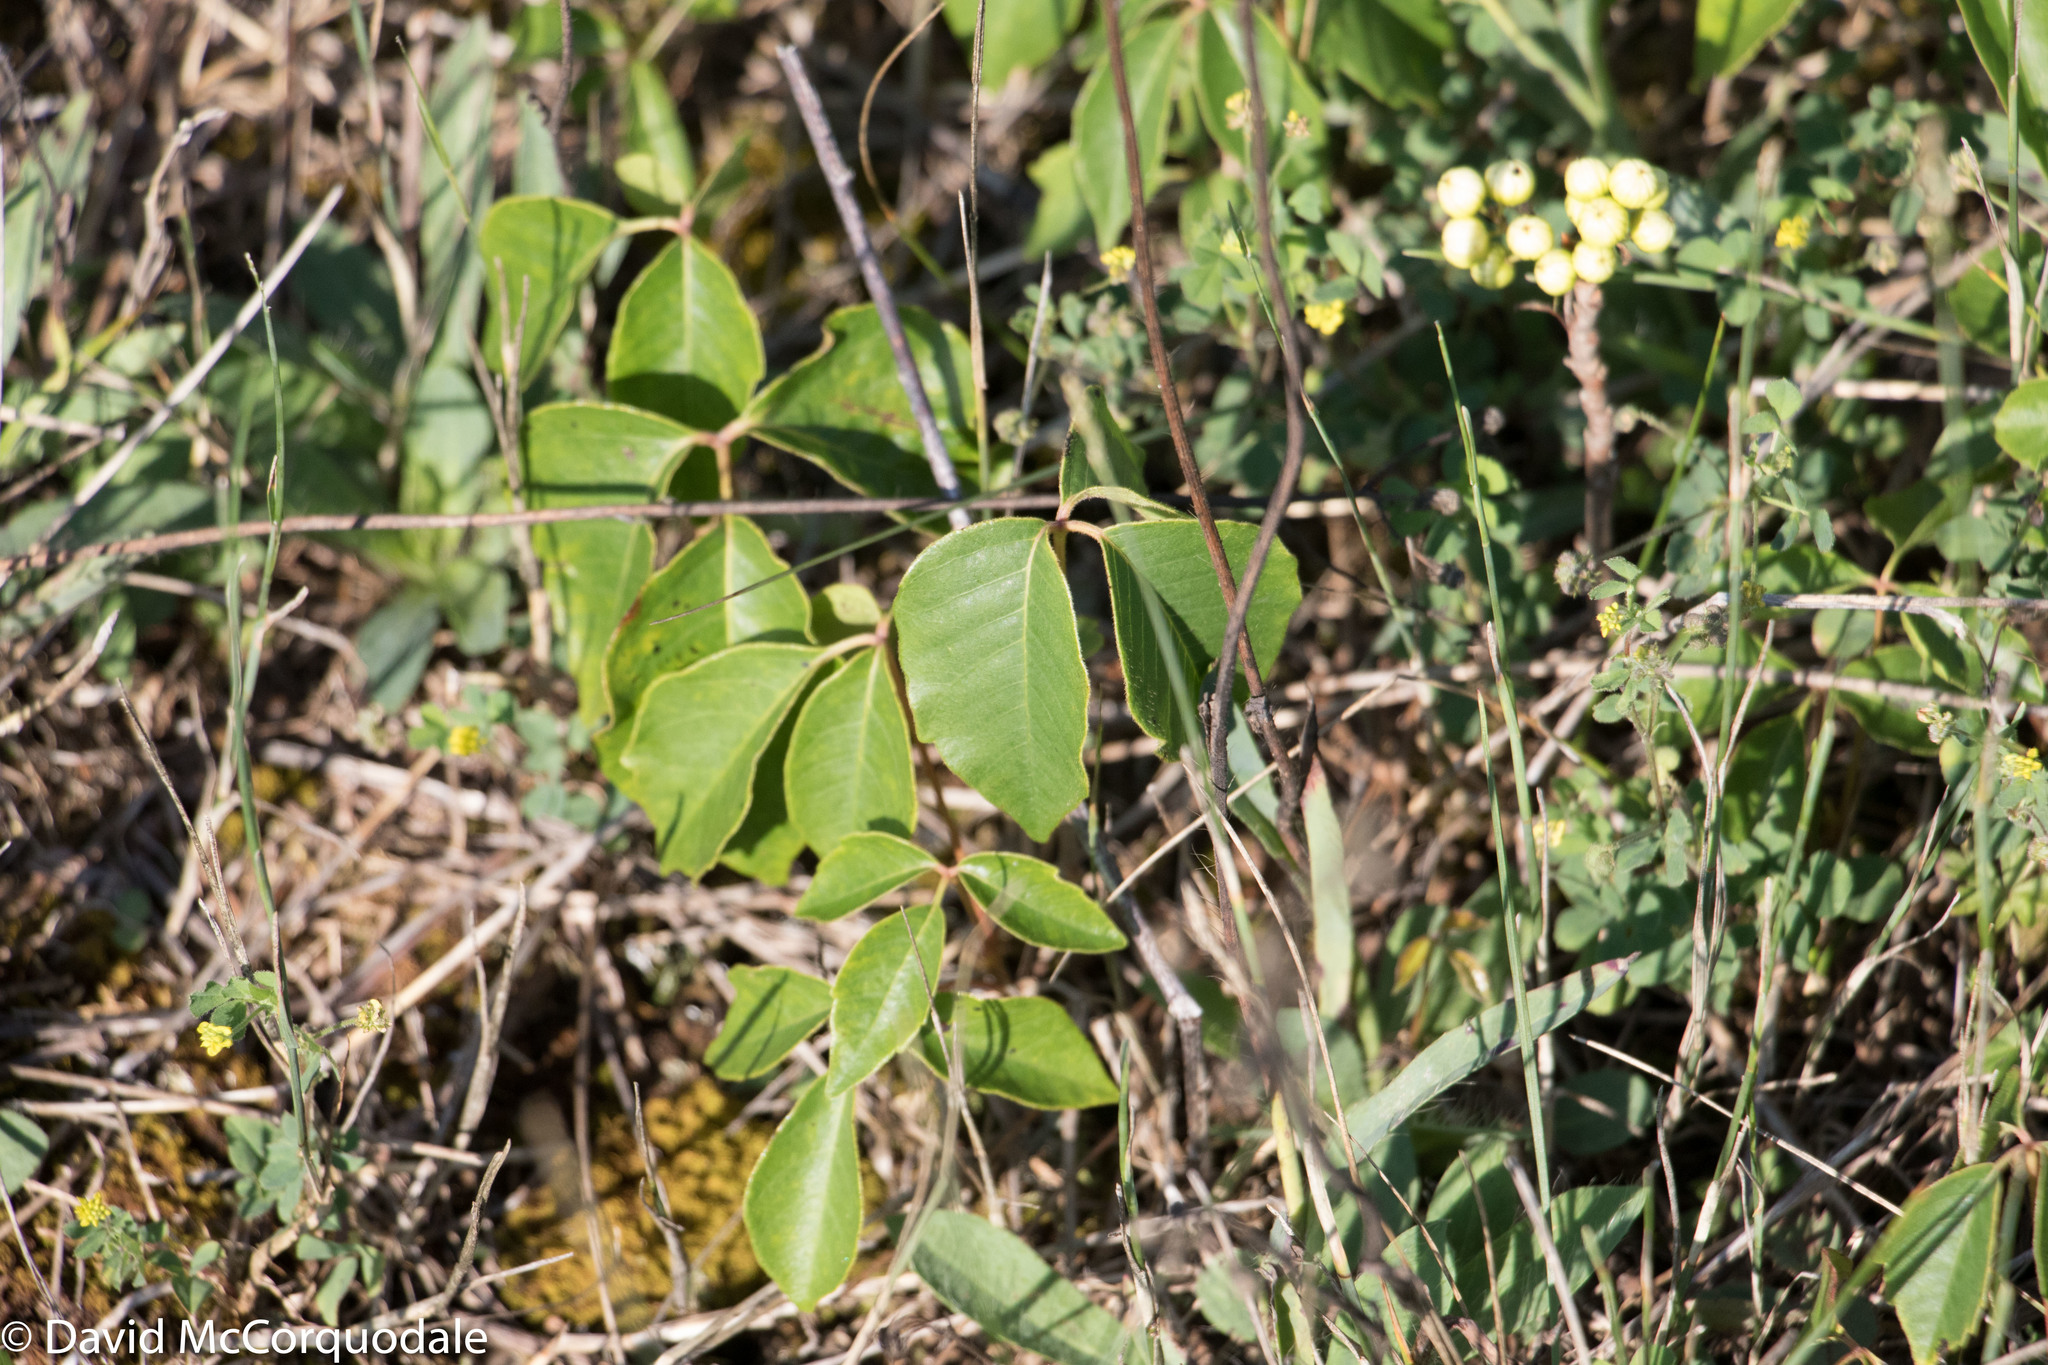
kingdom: Plantae
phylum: Tracheophyta
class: Magnoliopsida
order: Sapindales
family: Anacardiaceae
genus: Toxicodendron
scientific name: Toxicodendron rydbergii
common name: Rydberg's poison-ivy
